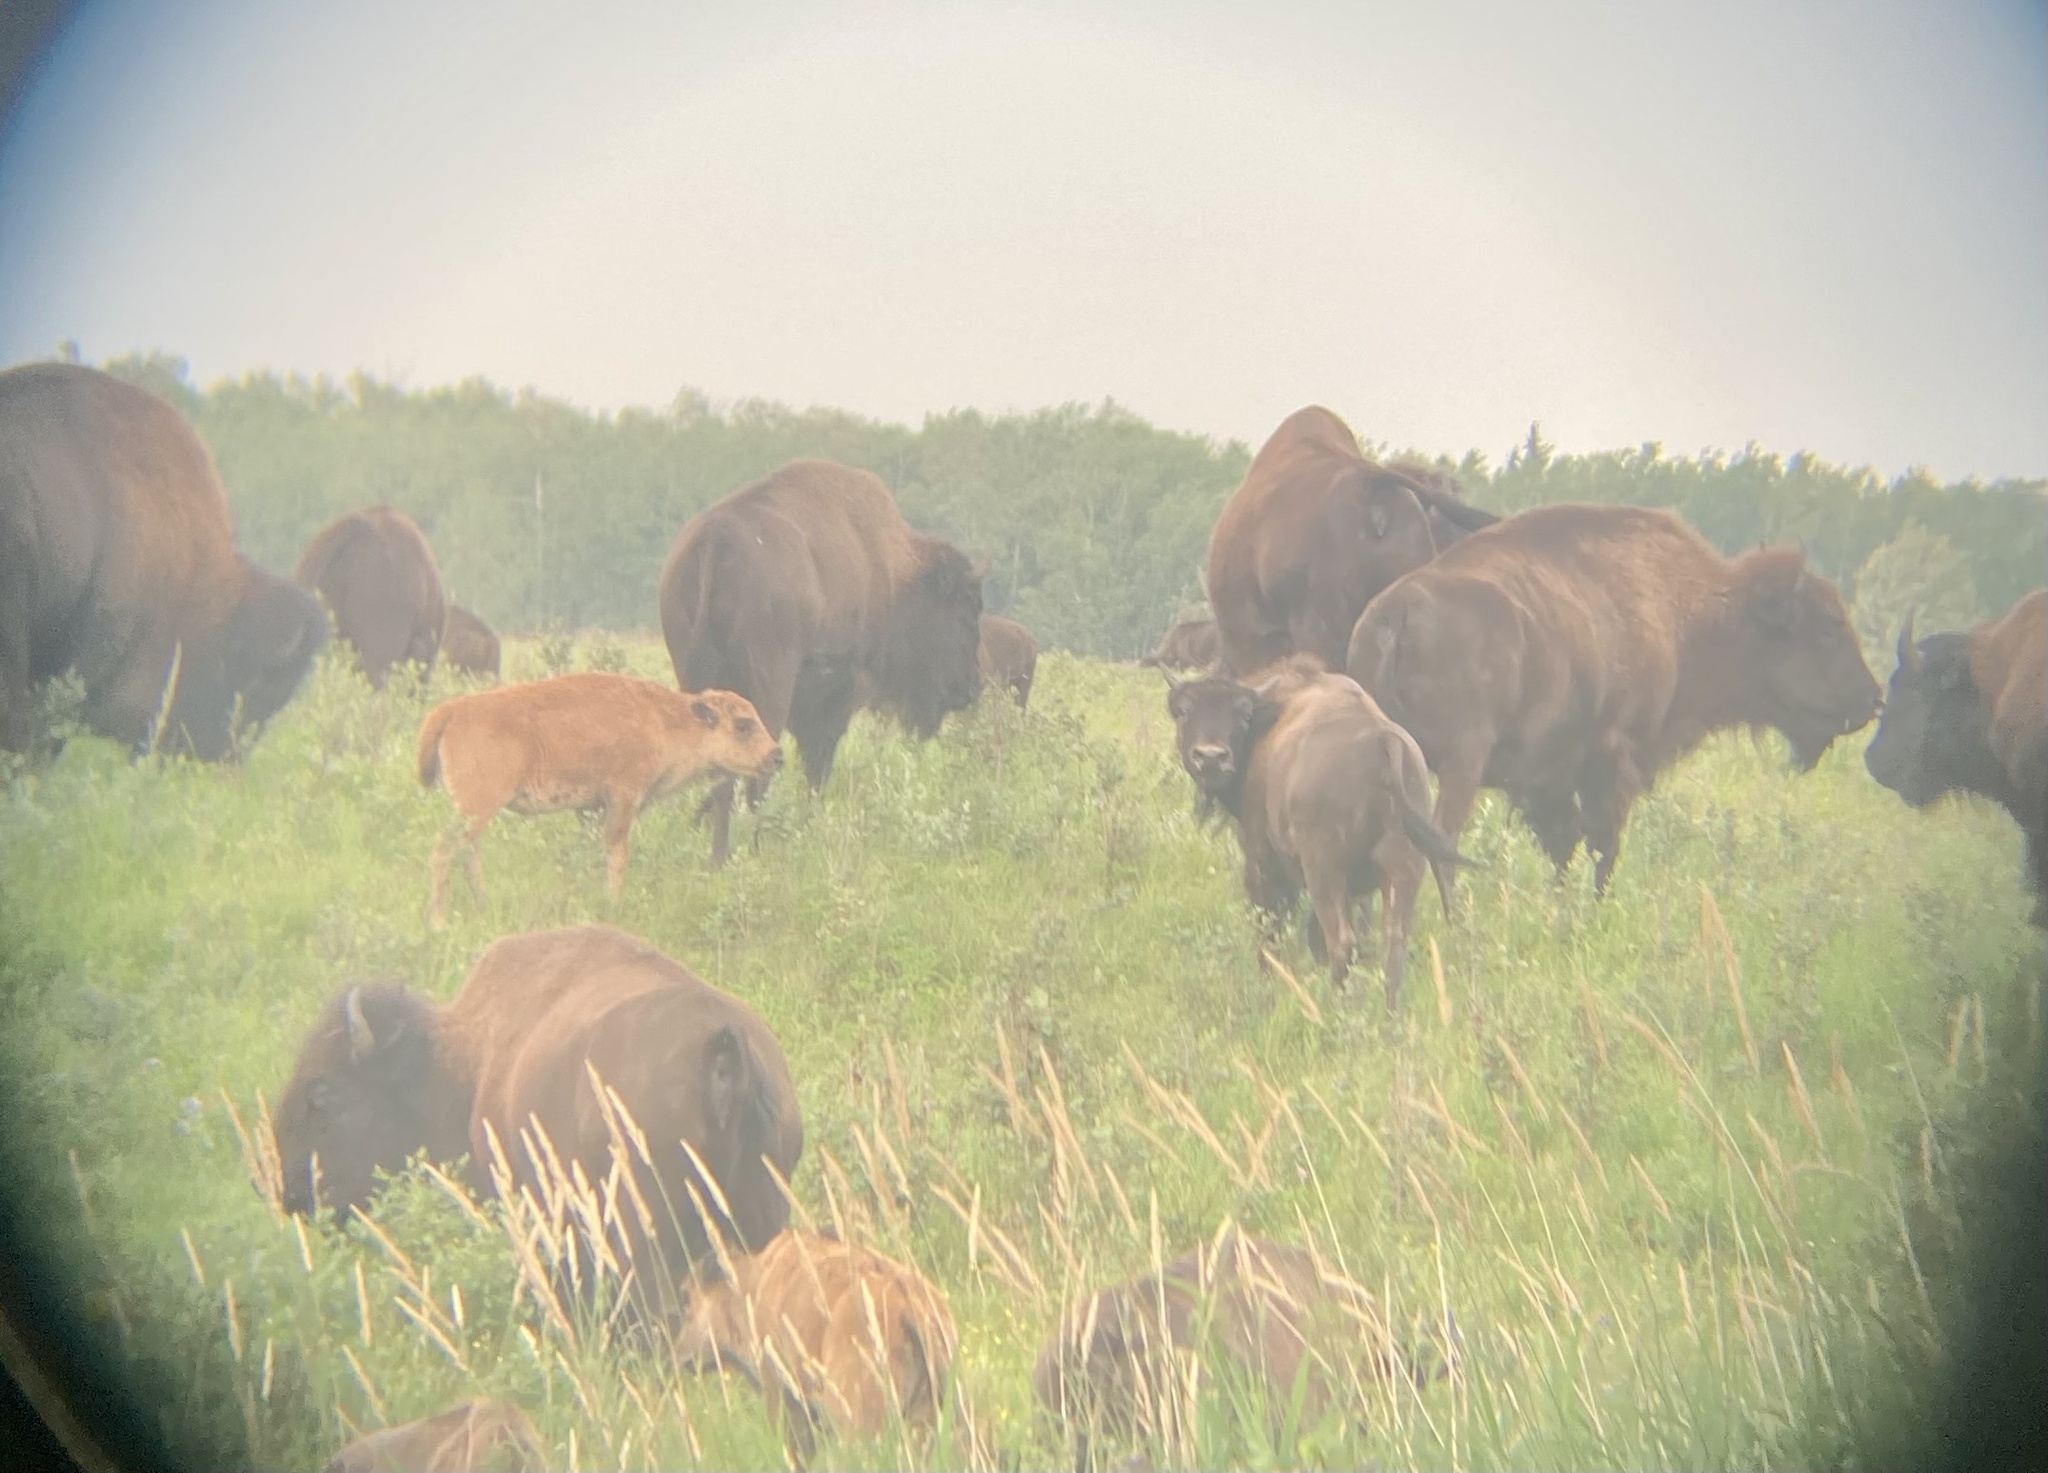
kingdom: Animalia
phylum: Chordata
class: Mammalia
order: Artiodactyla
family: Bovidae
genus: Bison
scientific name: Bison bison
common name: American bison
